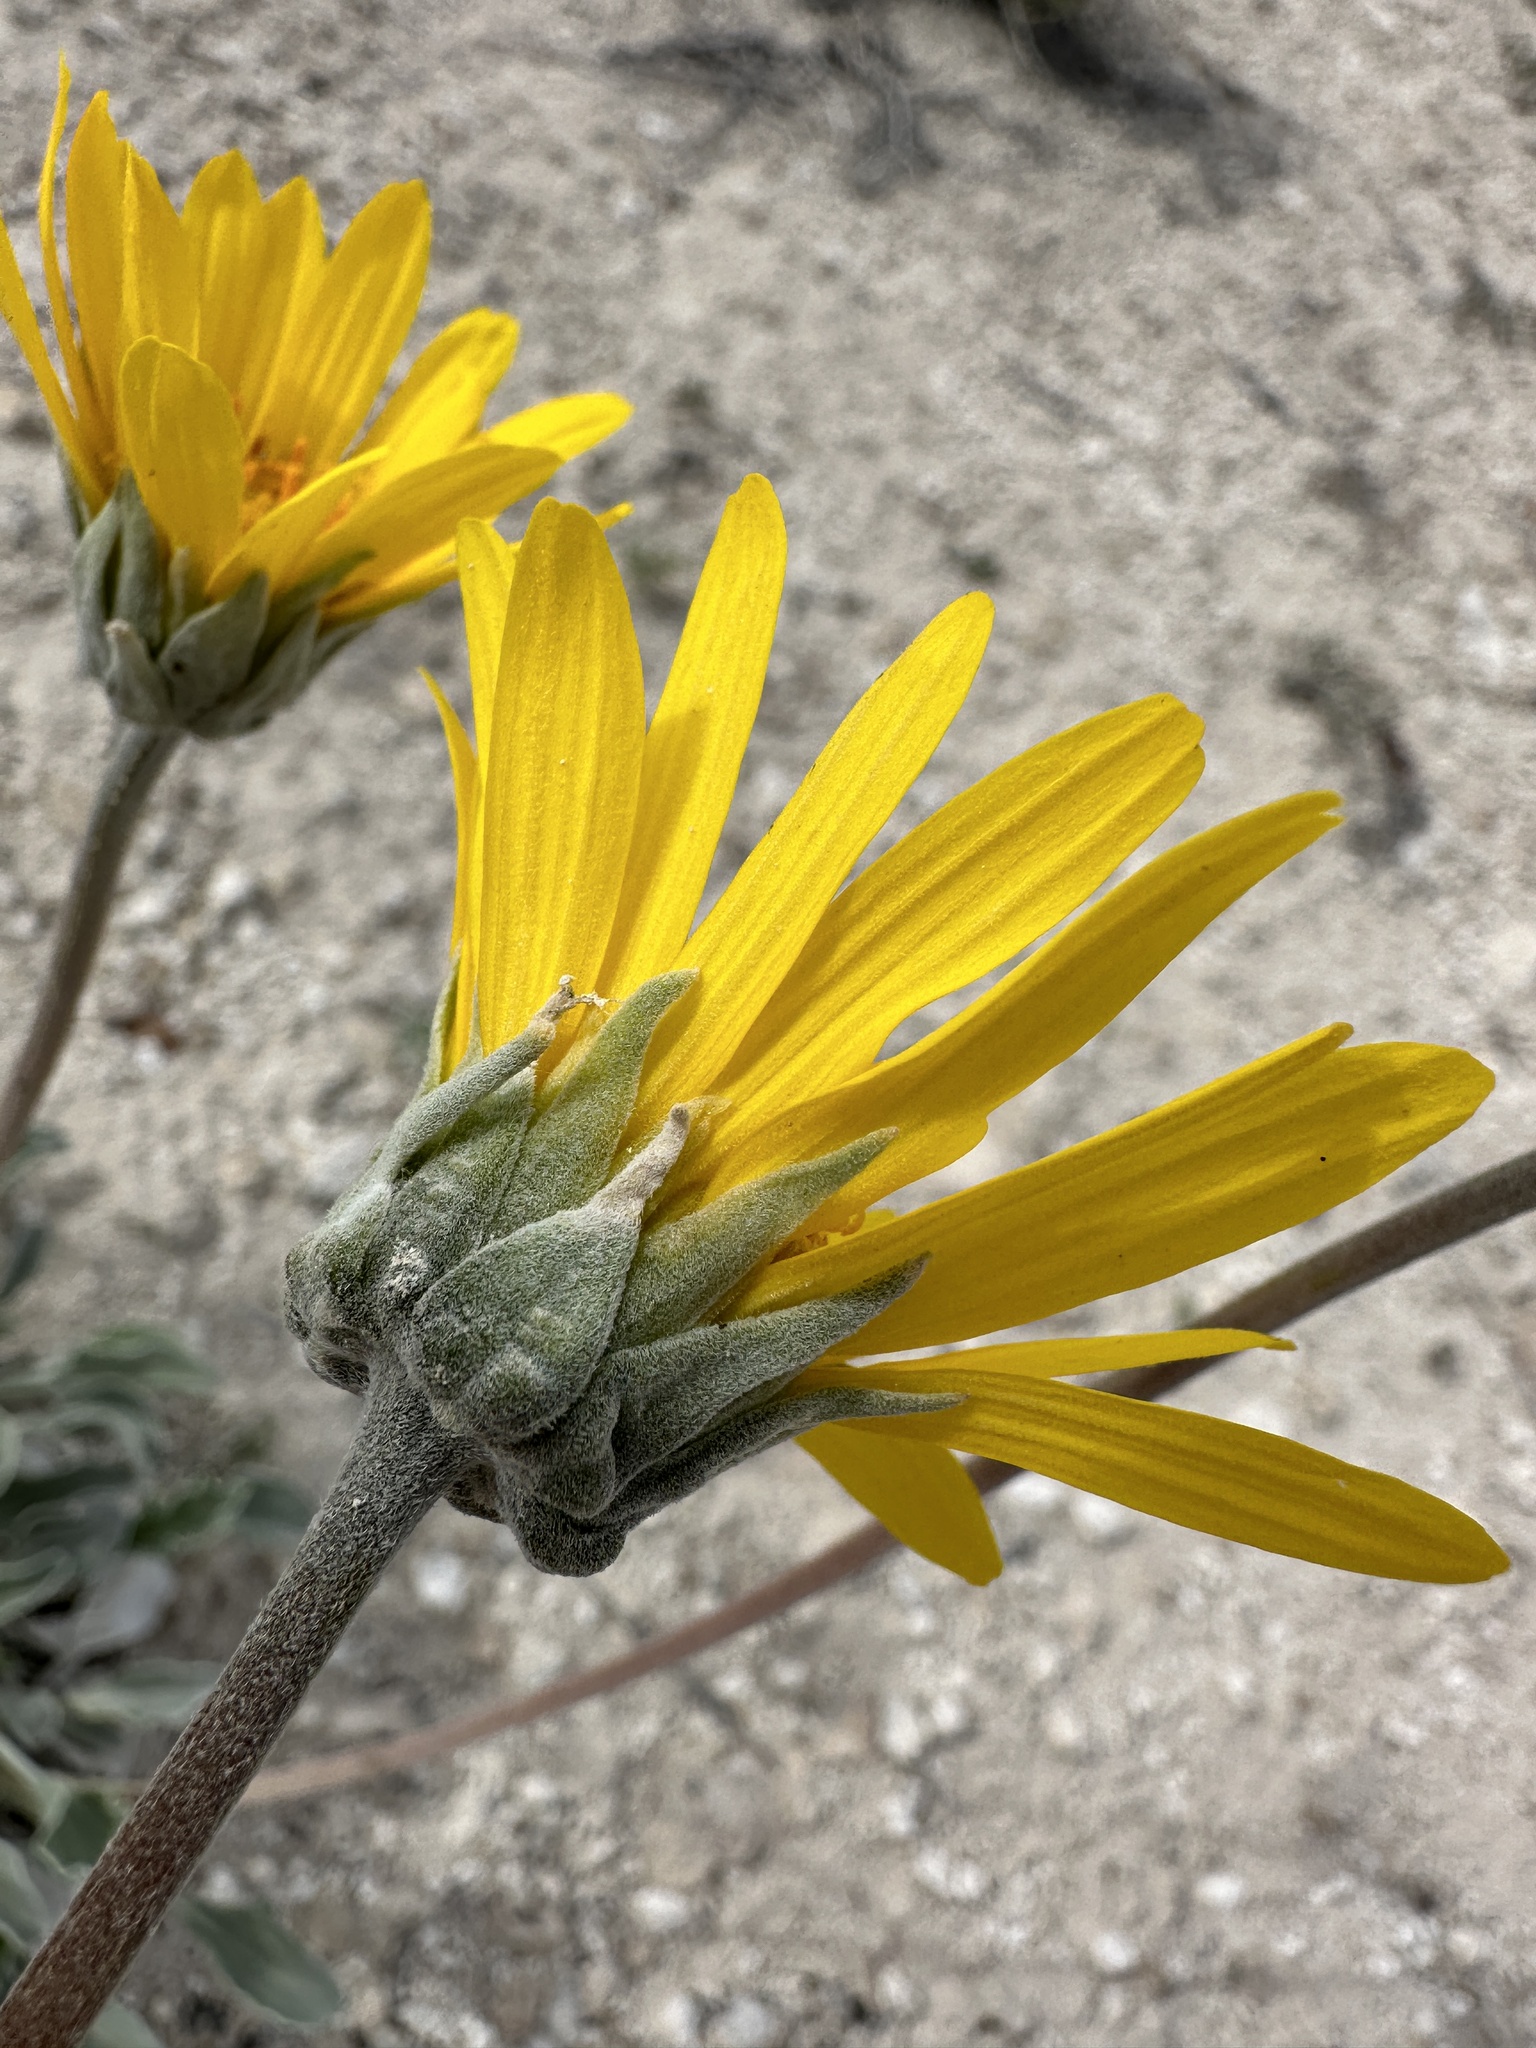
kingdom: Plantae
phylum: Tracheophyta
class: Magnoliopsida
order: Asterales
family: Asteraceae
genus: Enceliopsis
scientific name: Enceliopsis nudicaulis
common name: Naked-stem daisy
